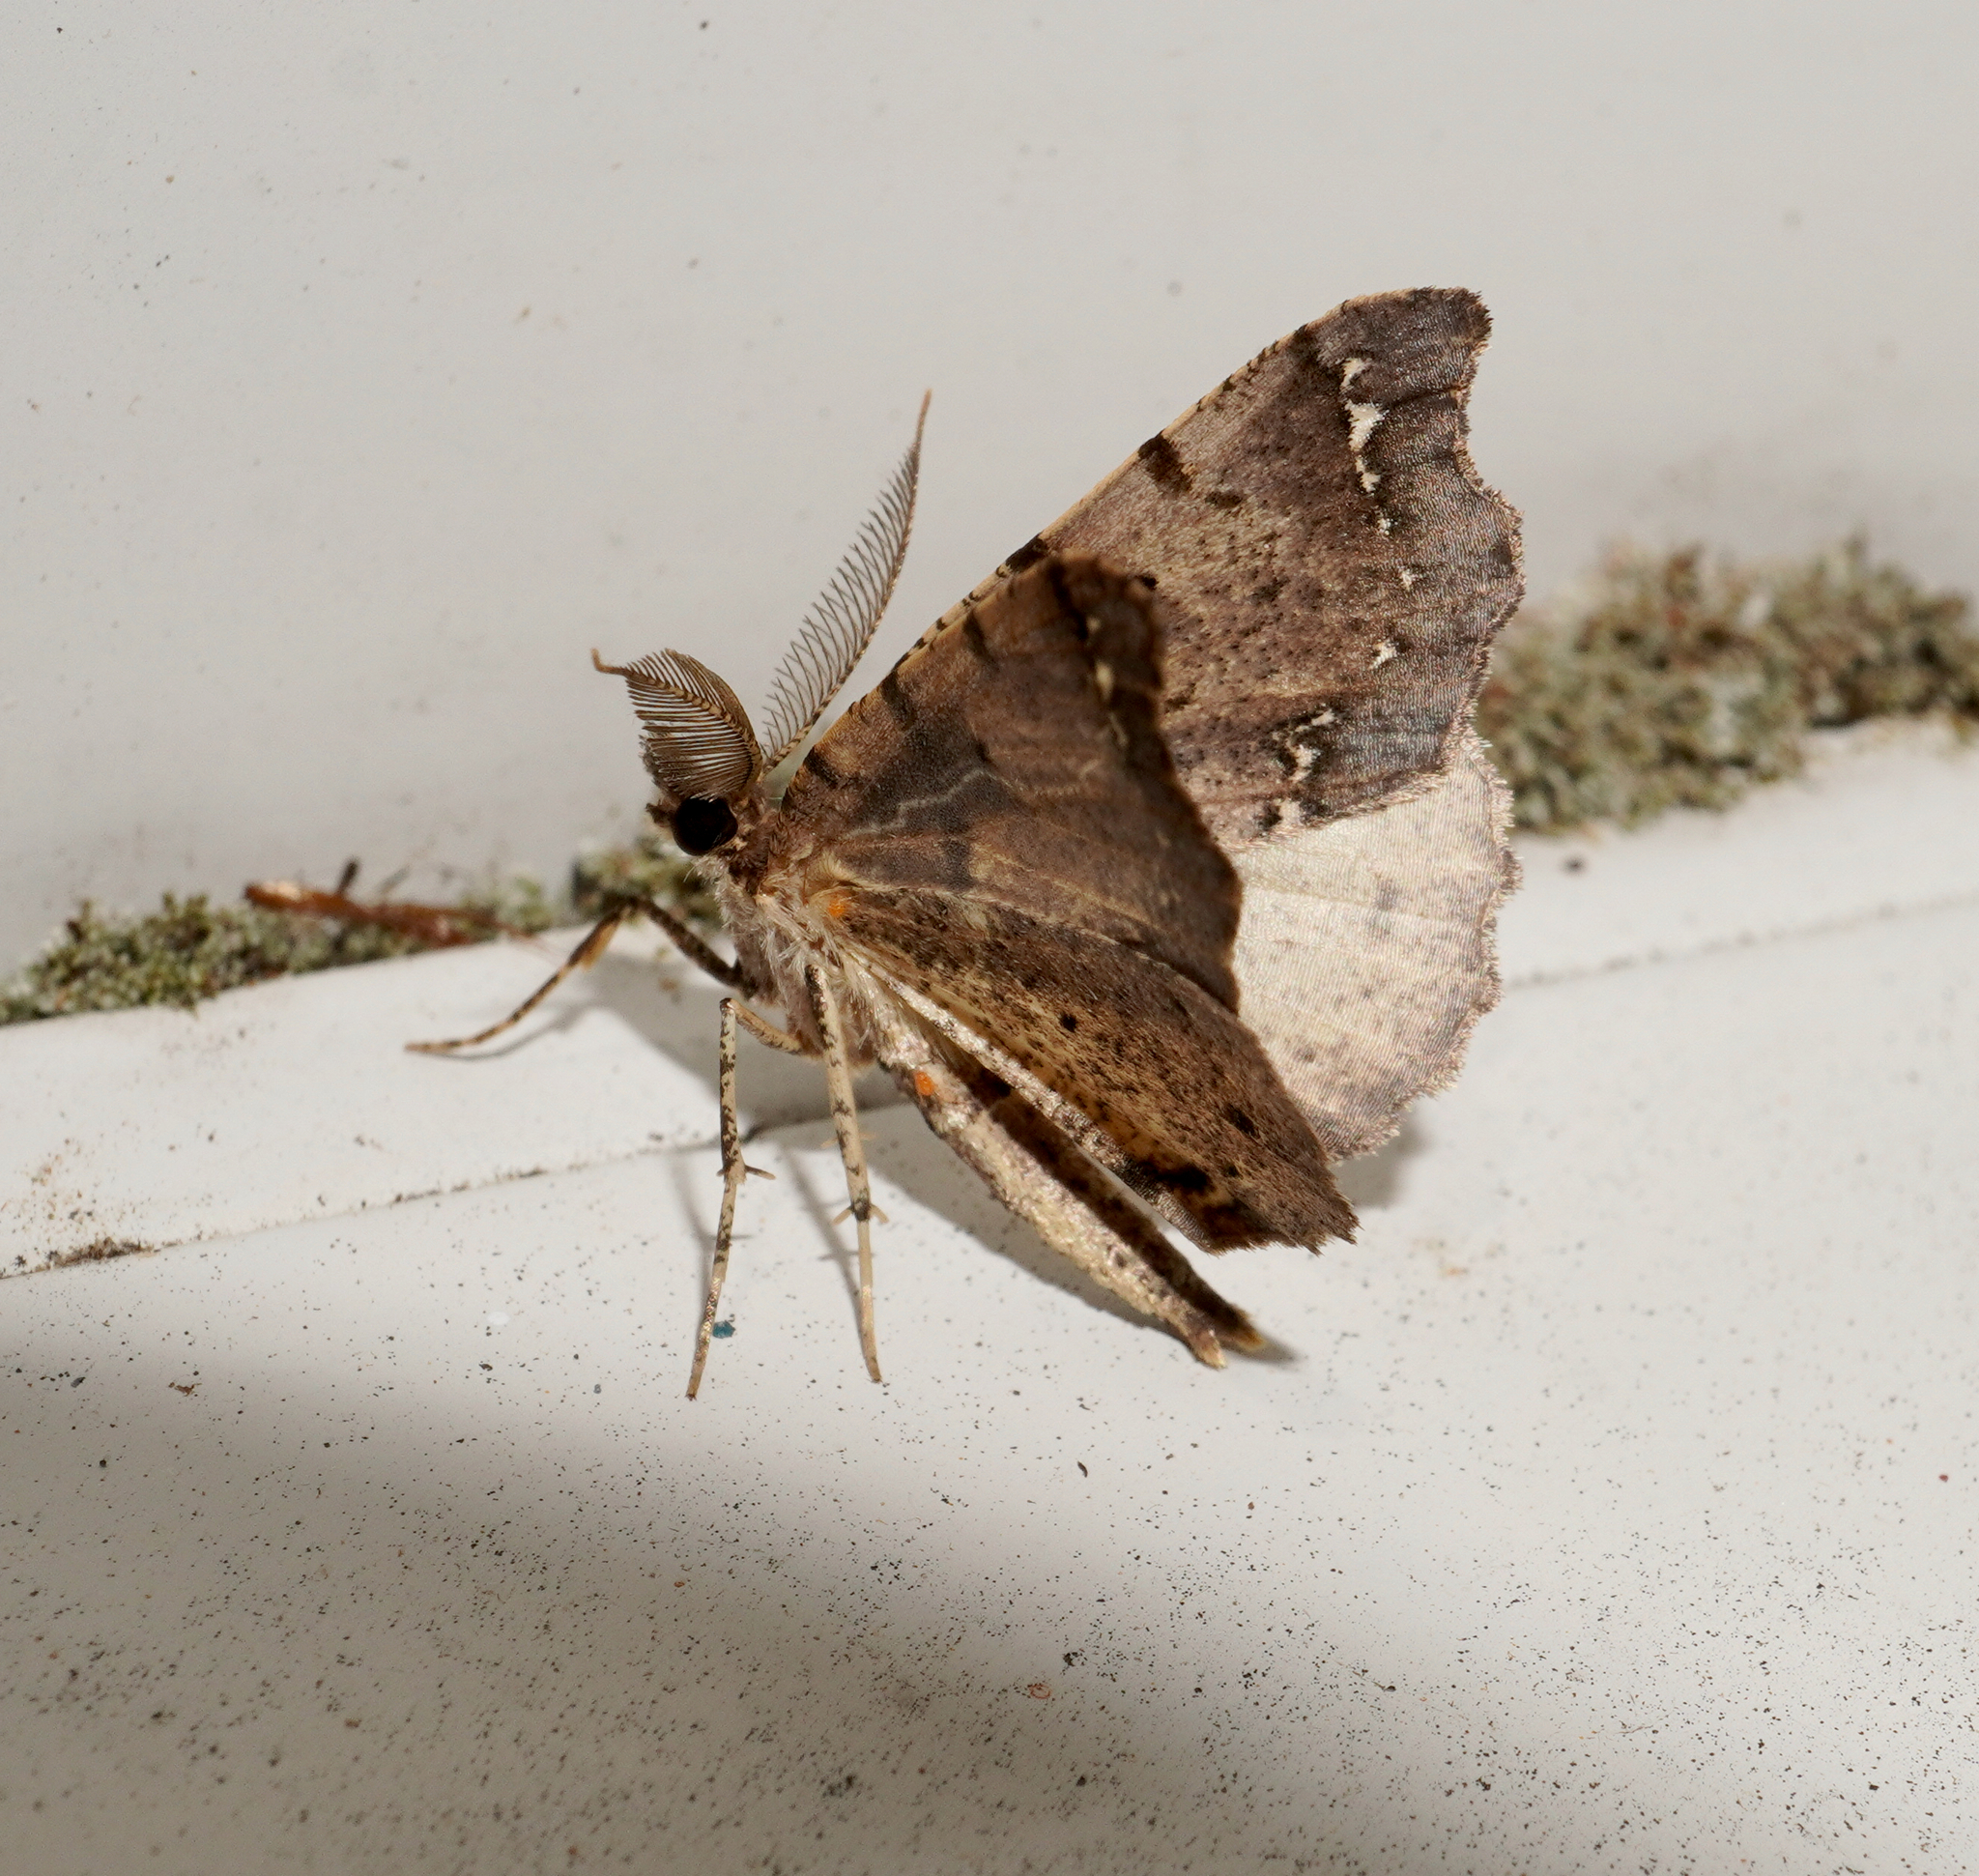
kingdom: Animalia
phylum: Arthropoda
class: Insecta
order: Lepidoptera
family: Geometridae
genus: Chalastra
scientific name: Chalastra pellurgata
